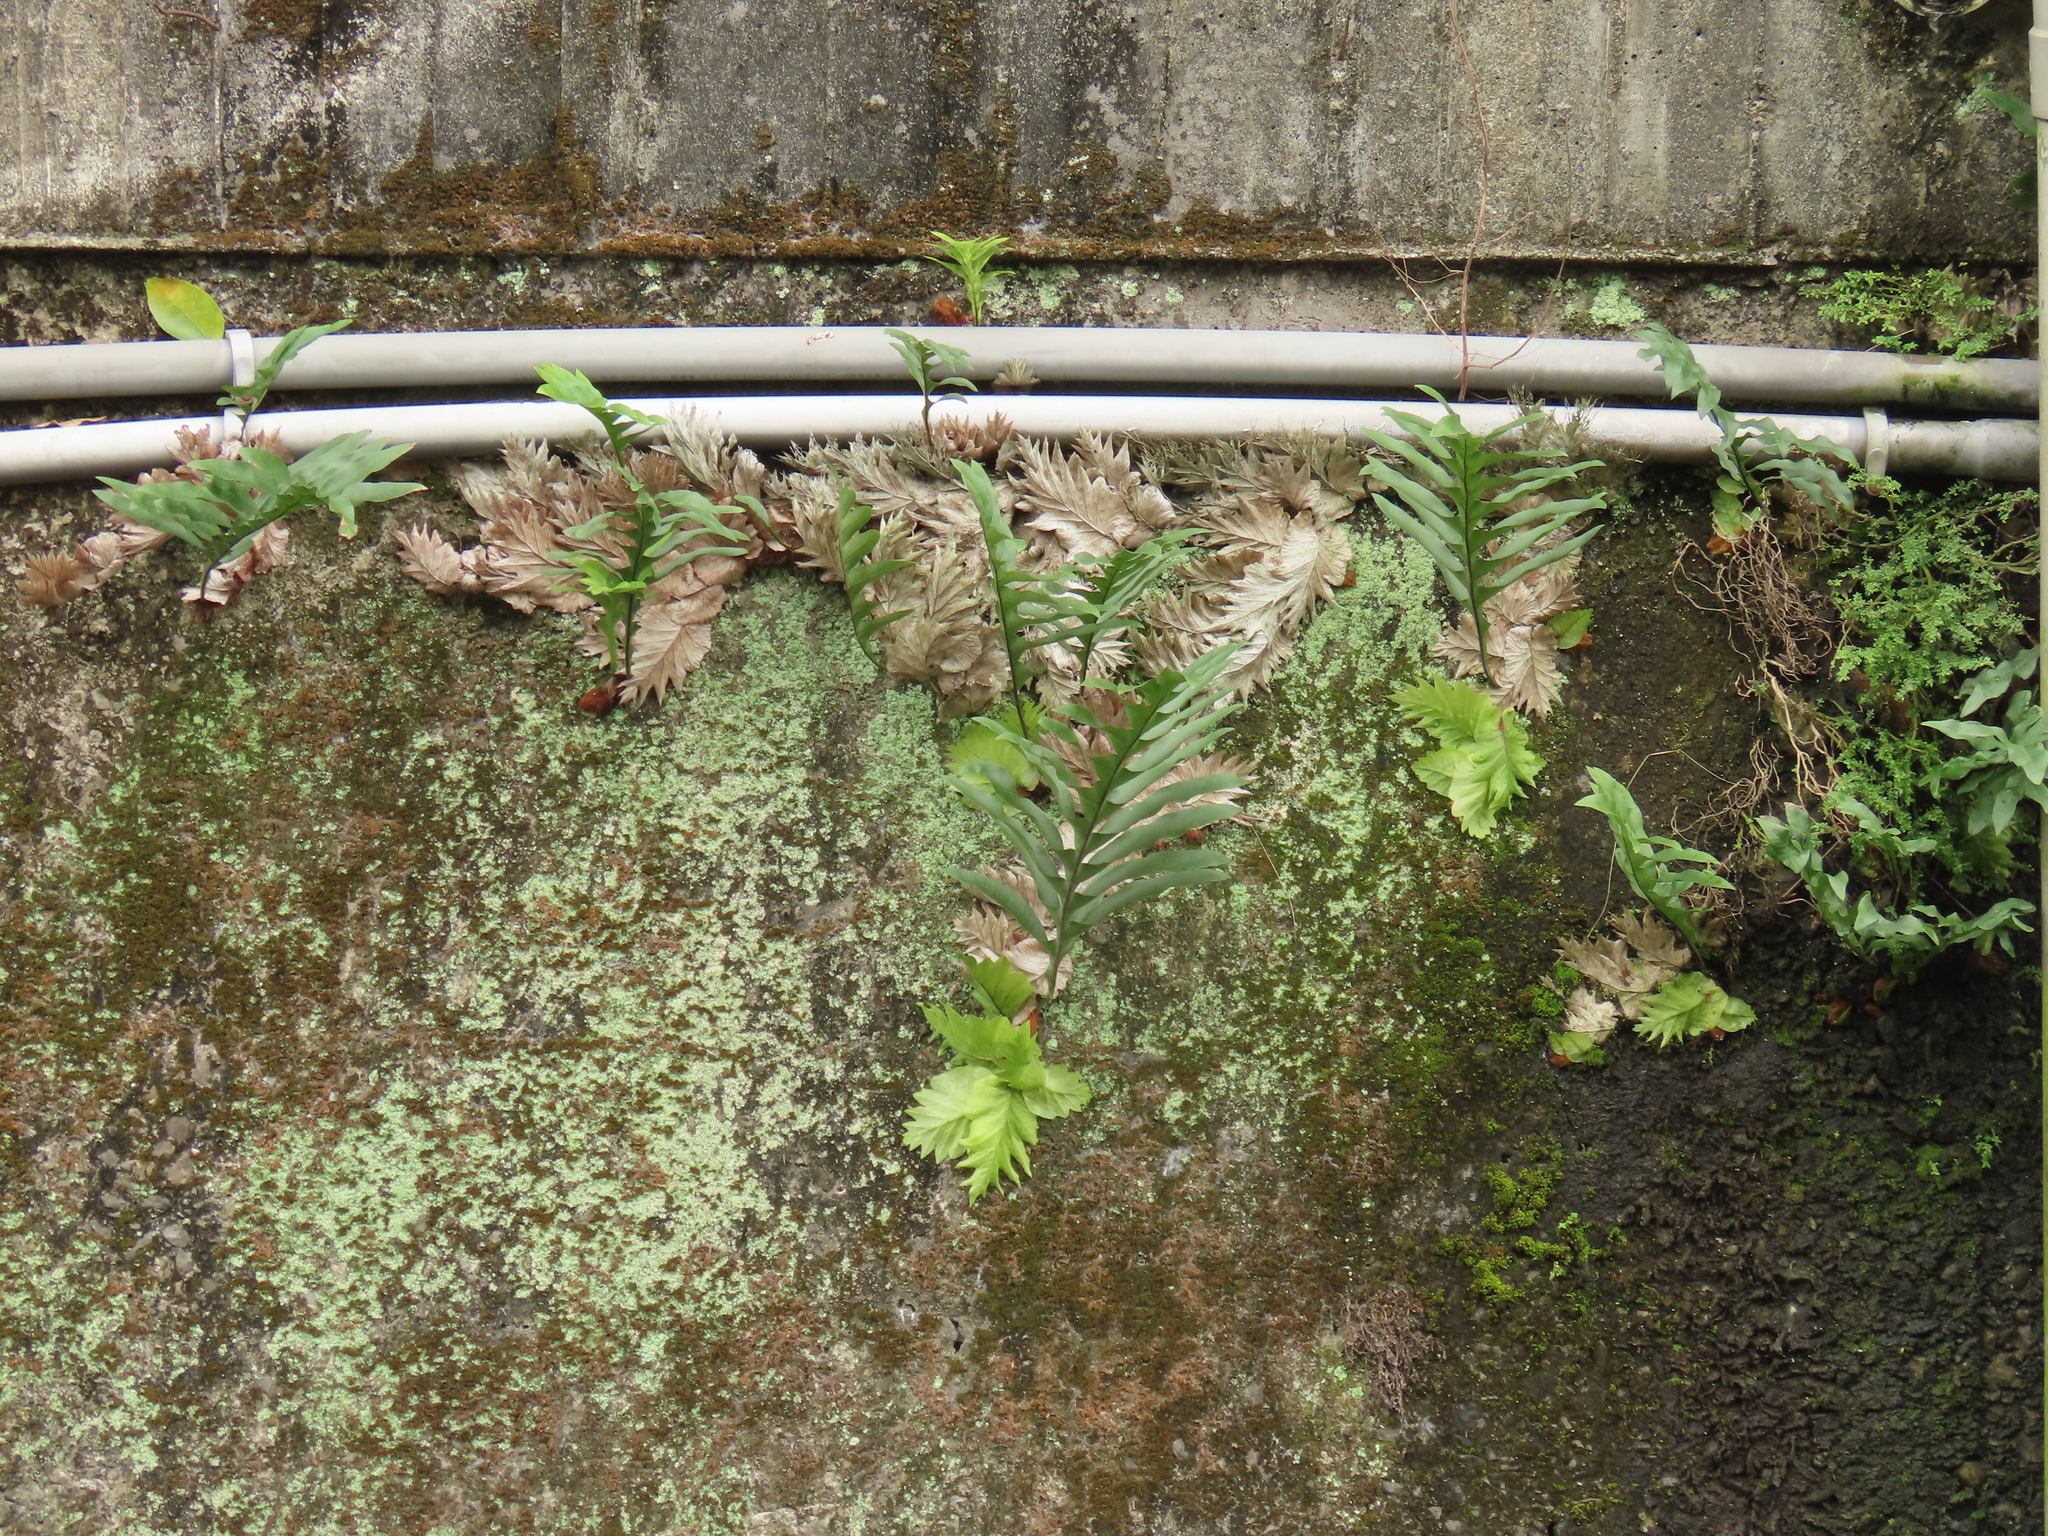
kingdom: Plantae
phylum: Tracheophyta
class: Polypodiopsida
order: Polypodiales
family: Polypodiaceae
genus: Drynaria
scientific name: Drynaria roosii
